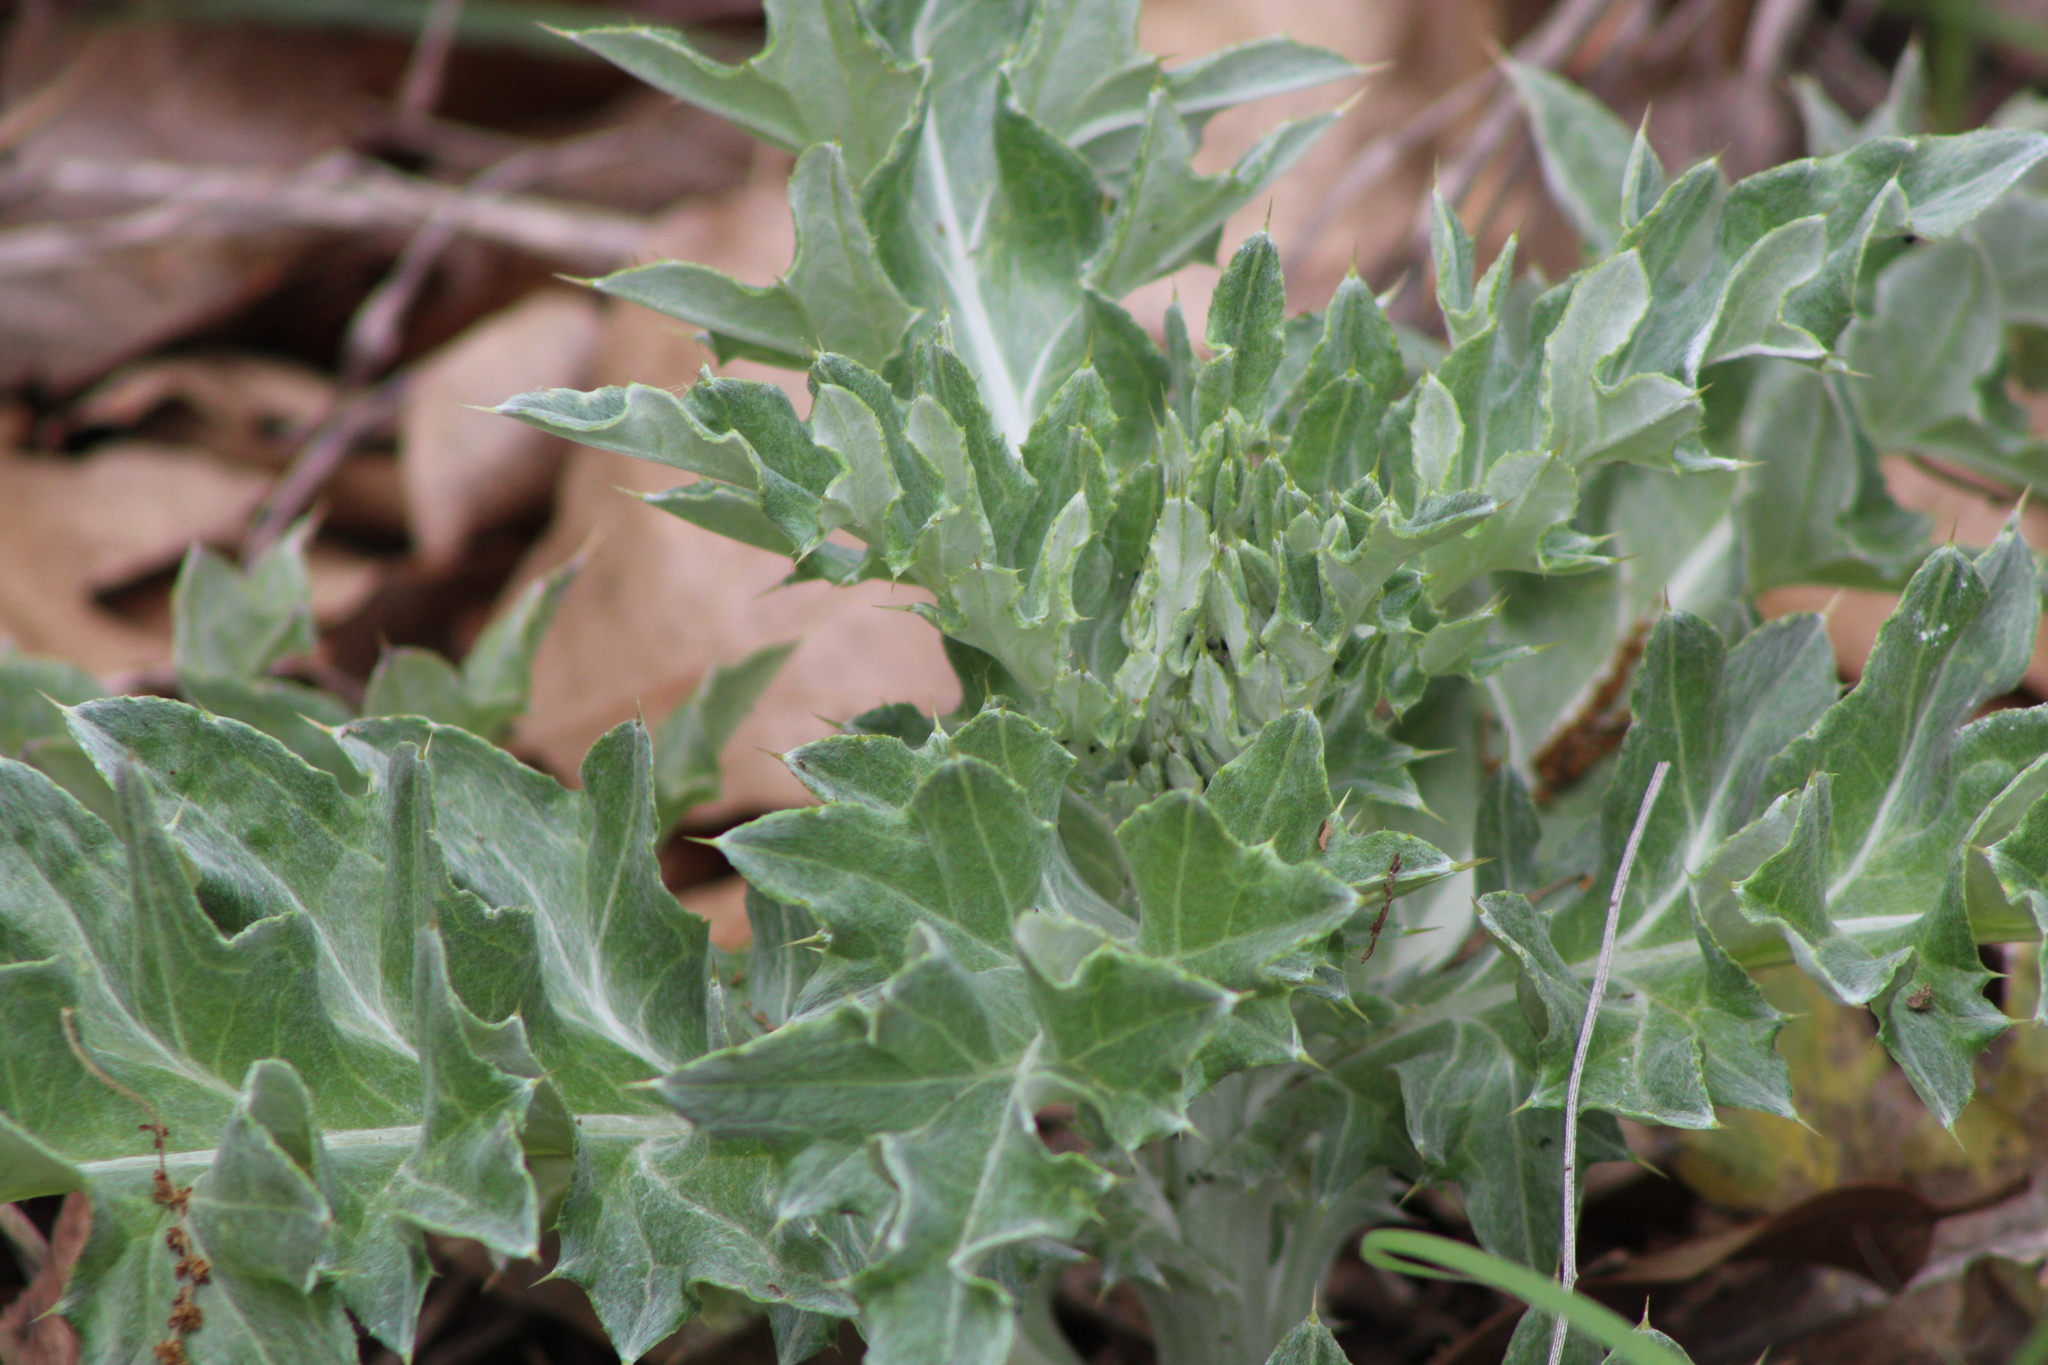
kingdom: Plantae
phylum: Tracheophyta
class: Magnoliopsida
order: Asterales
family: Asteraceae
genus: Cirsium
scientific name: Cirsium undulatum
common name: Pasture thistle
